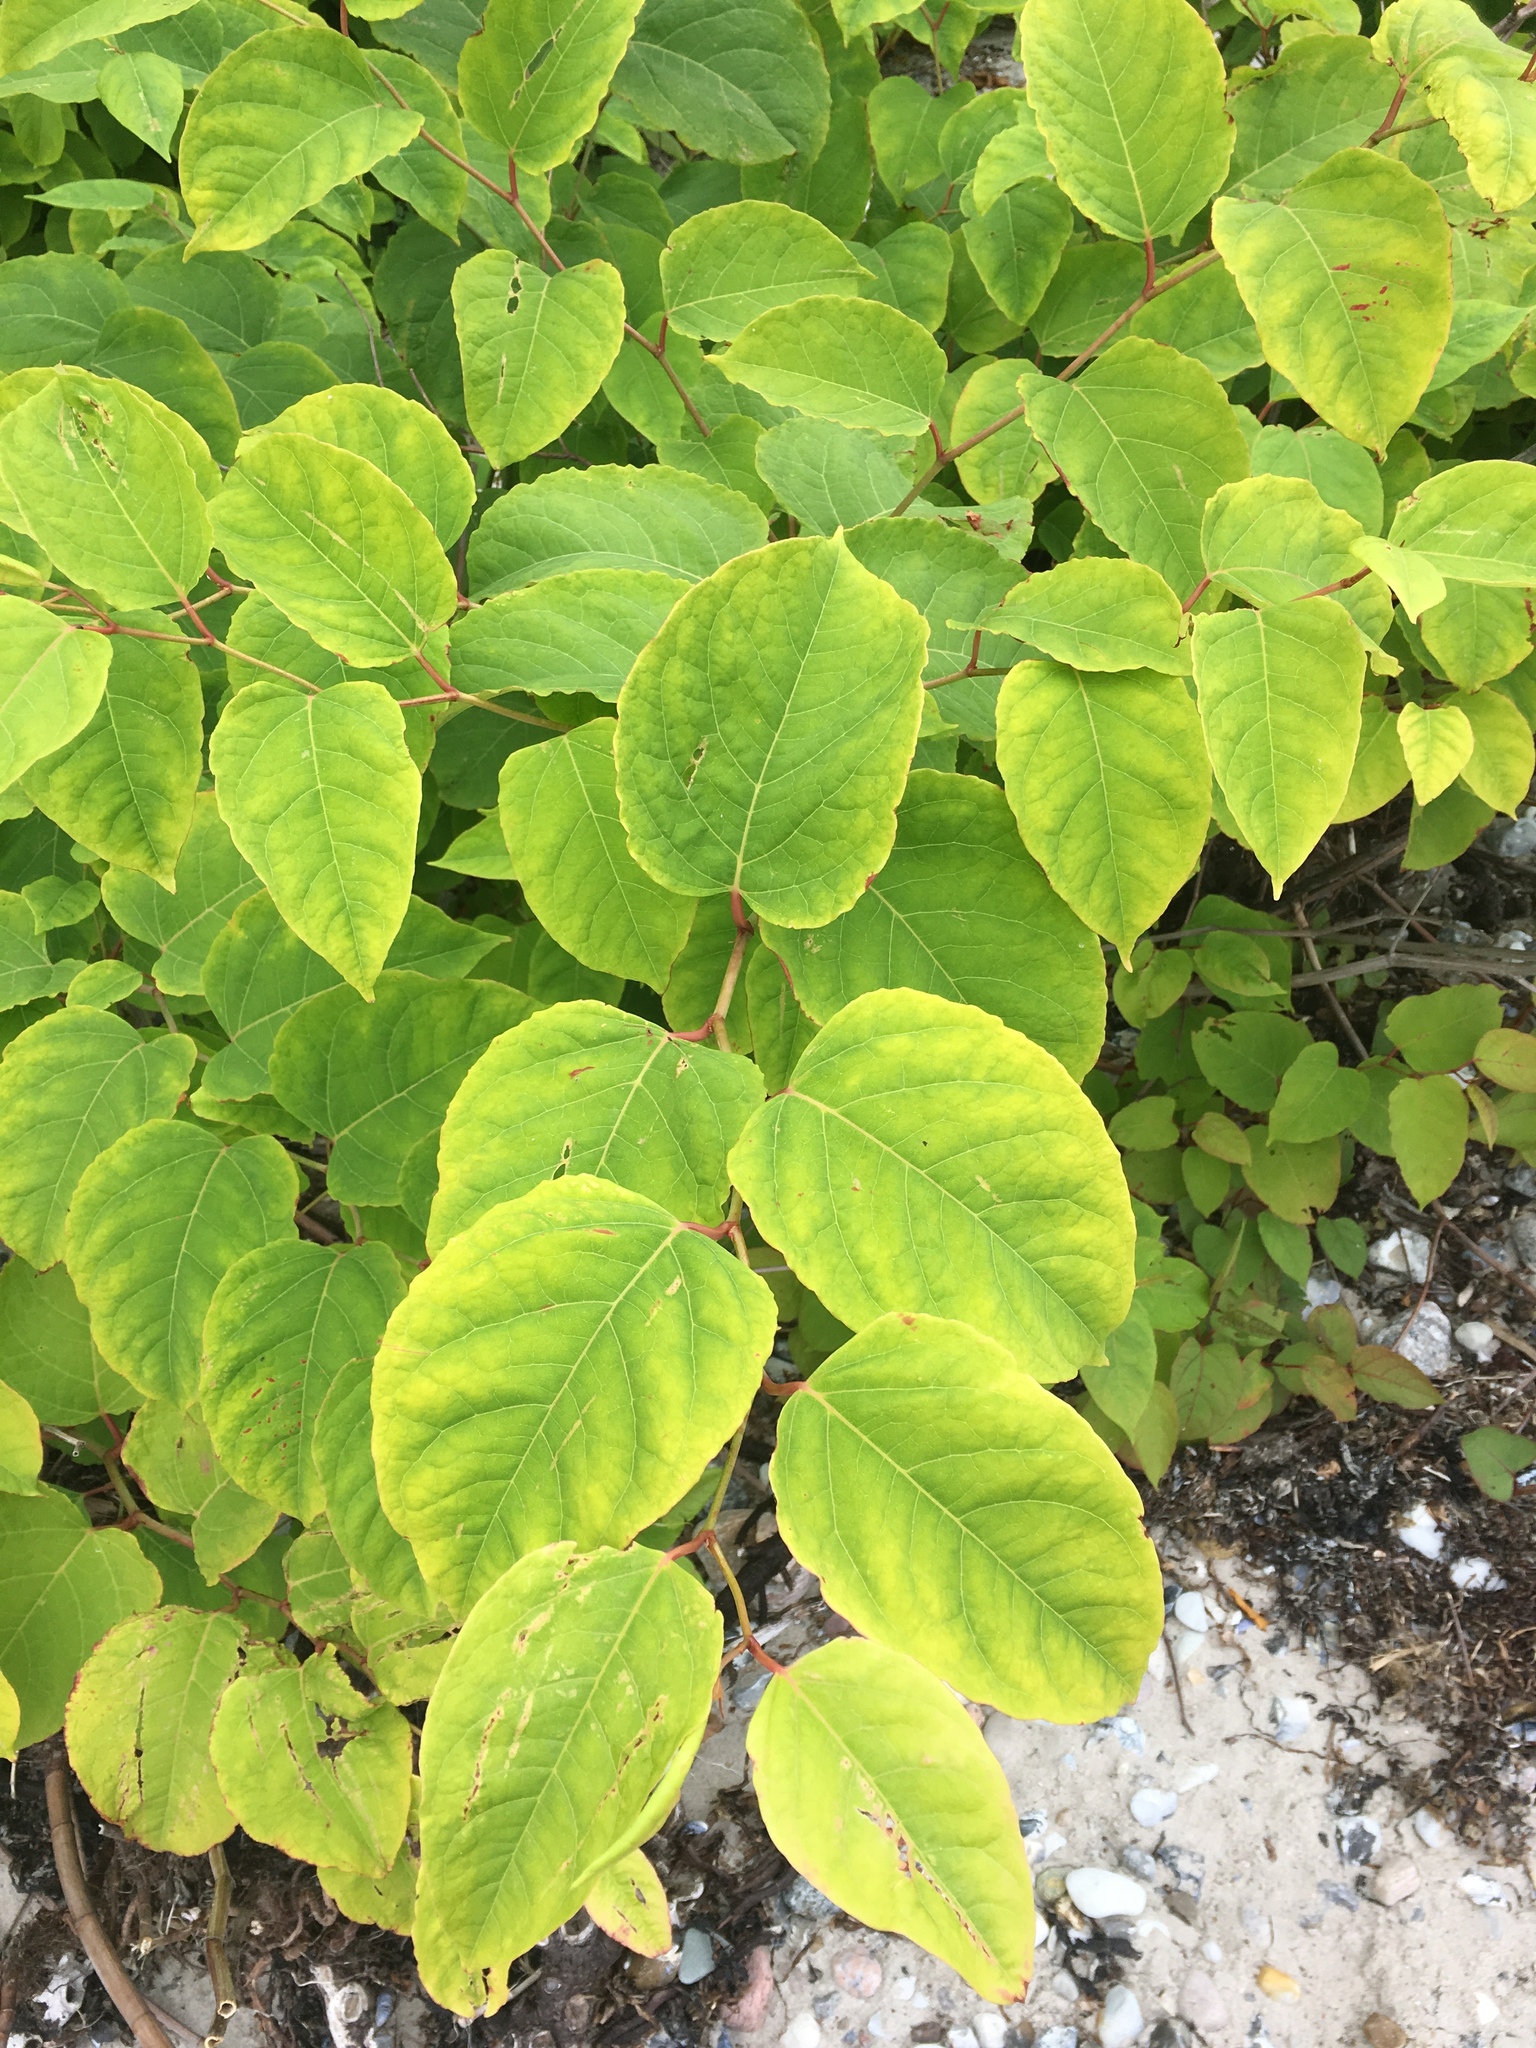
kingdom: Plantae
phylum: Tracheophyta
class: Magnoliopsida
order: Caryophyllales
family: Polygonaceae
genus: Reynoutria
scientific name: Reynoutria japonica
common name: Japanese knotweed
